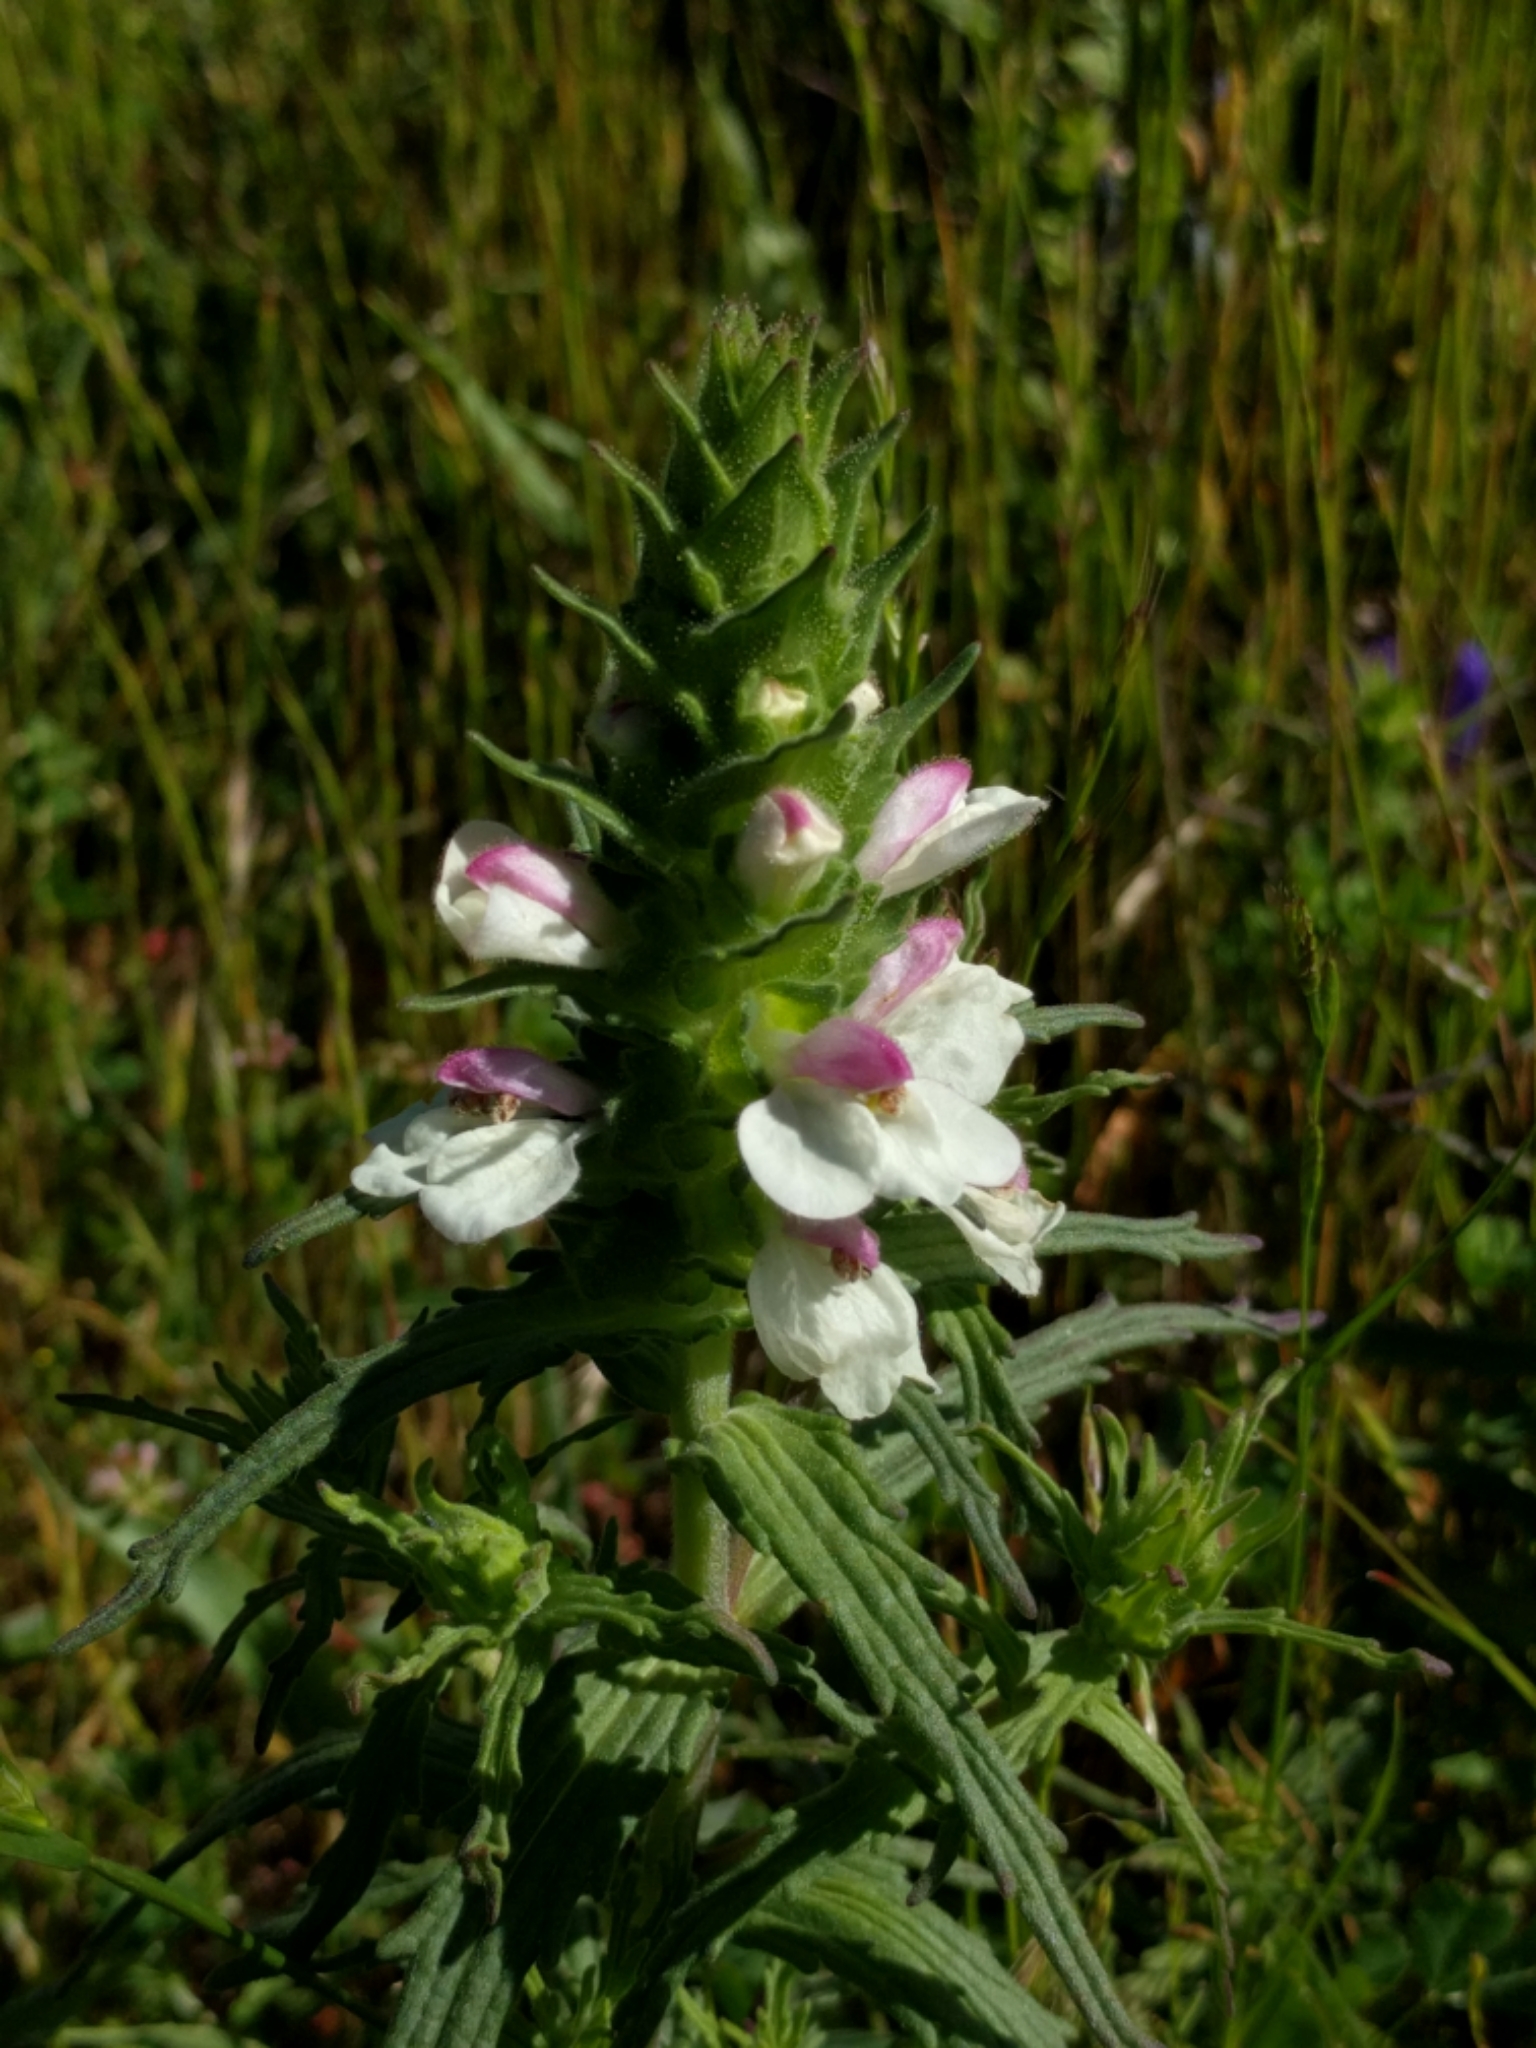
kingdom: Plantae
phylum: Tracheophyta
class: Magnoliopsida
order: Lamiales
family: Orobanchaceae
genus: Bellardia
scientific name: Bellardia trixago
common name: Mediterranean lineseed
